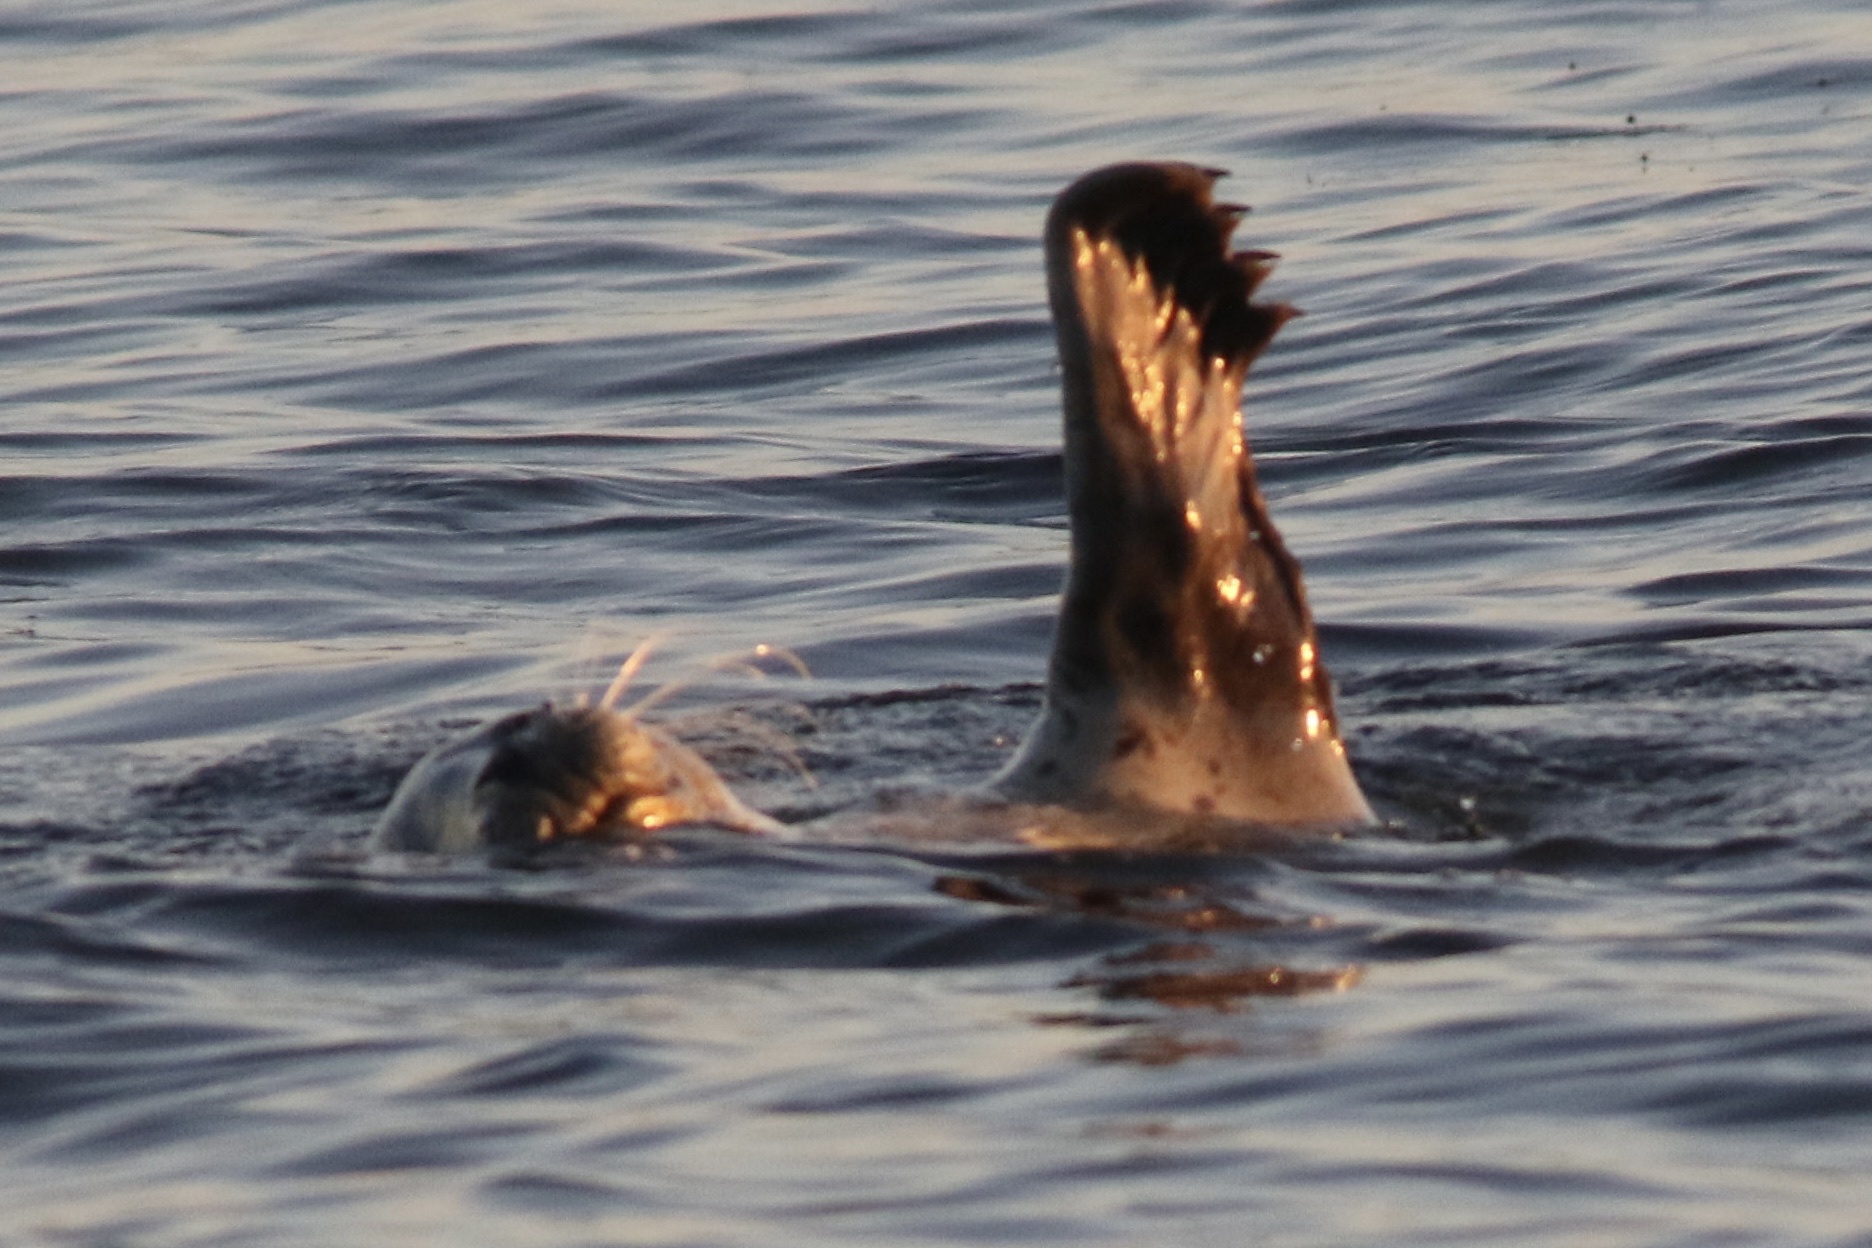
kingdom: Animalia
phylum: Chordata
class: Mammalia
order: Carnivora
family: Phocidae
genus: Phoca
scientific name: Phoca vitulina
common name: Harbor seal
